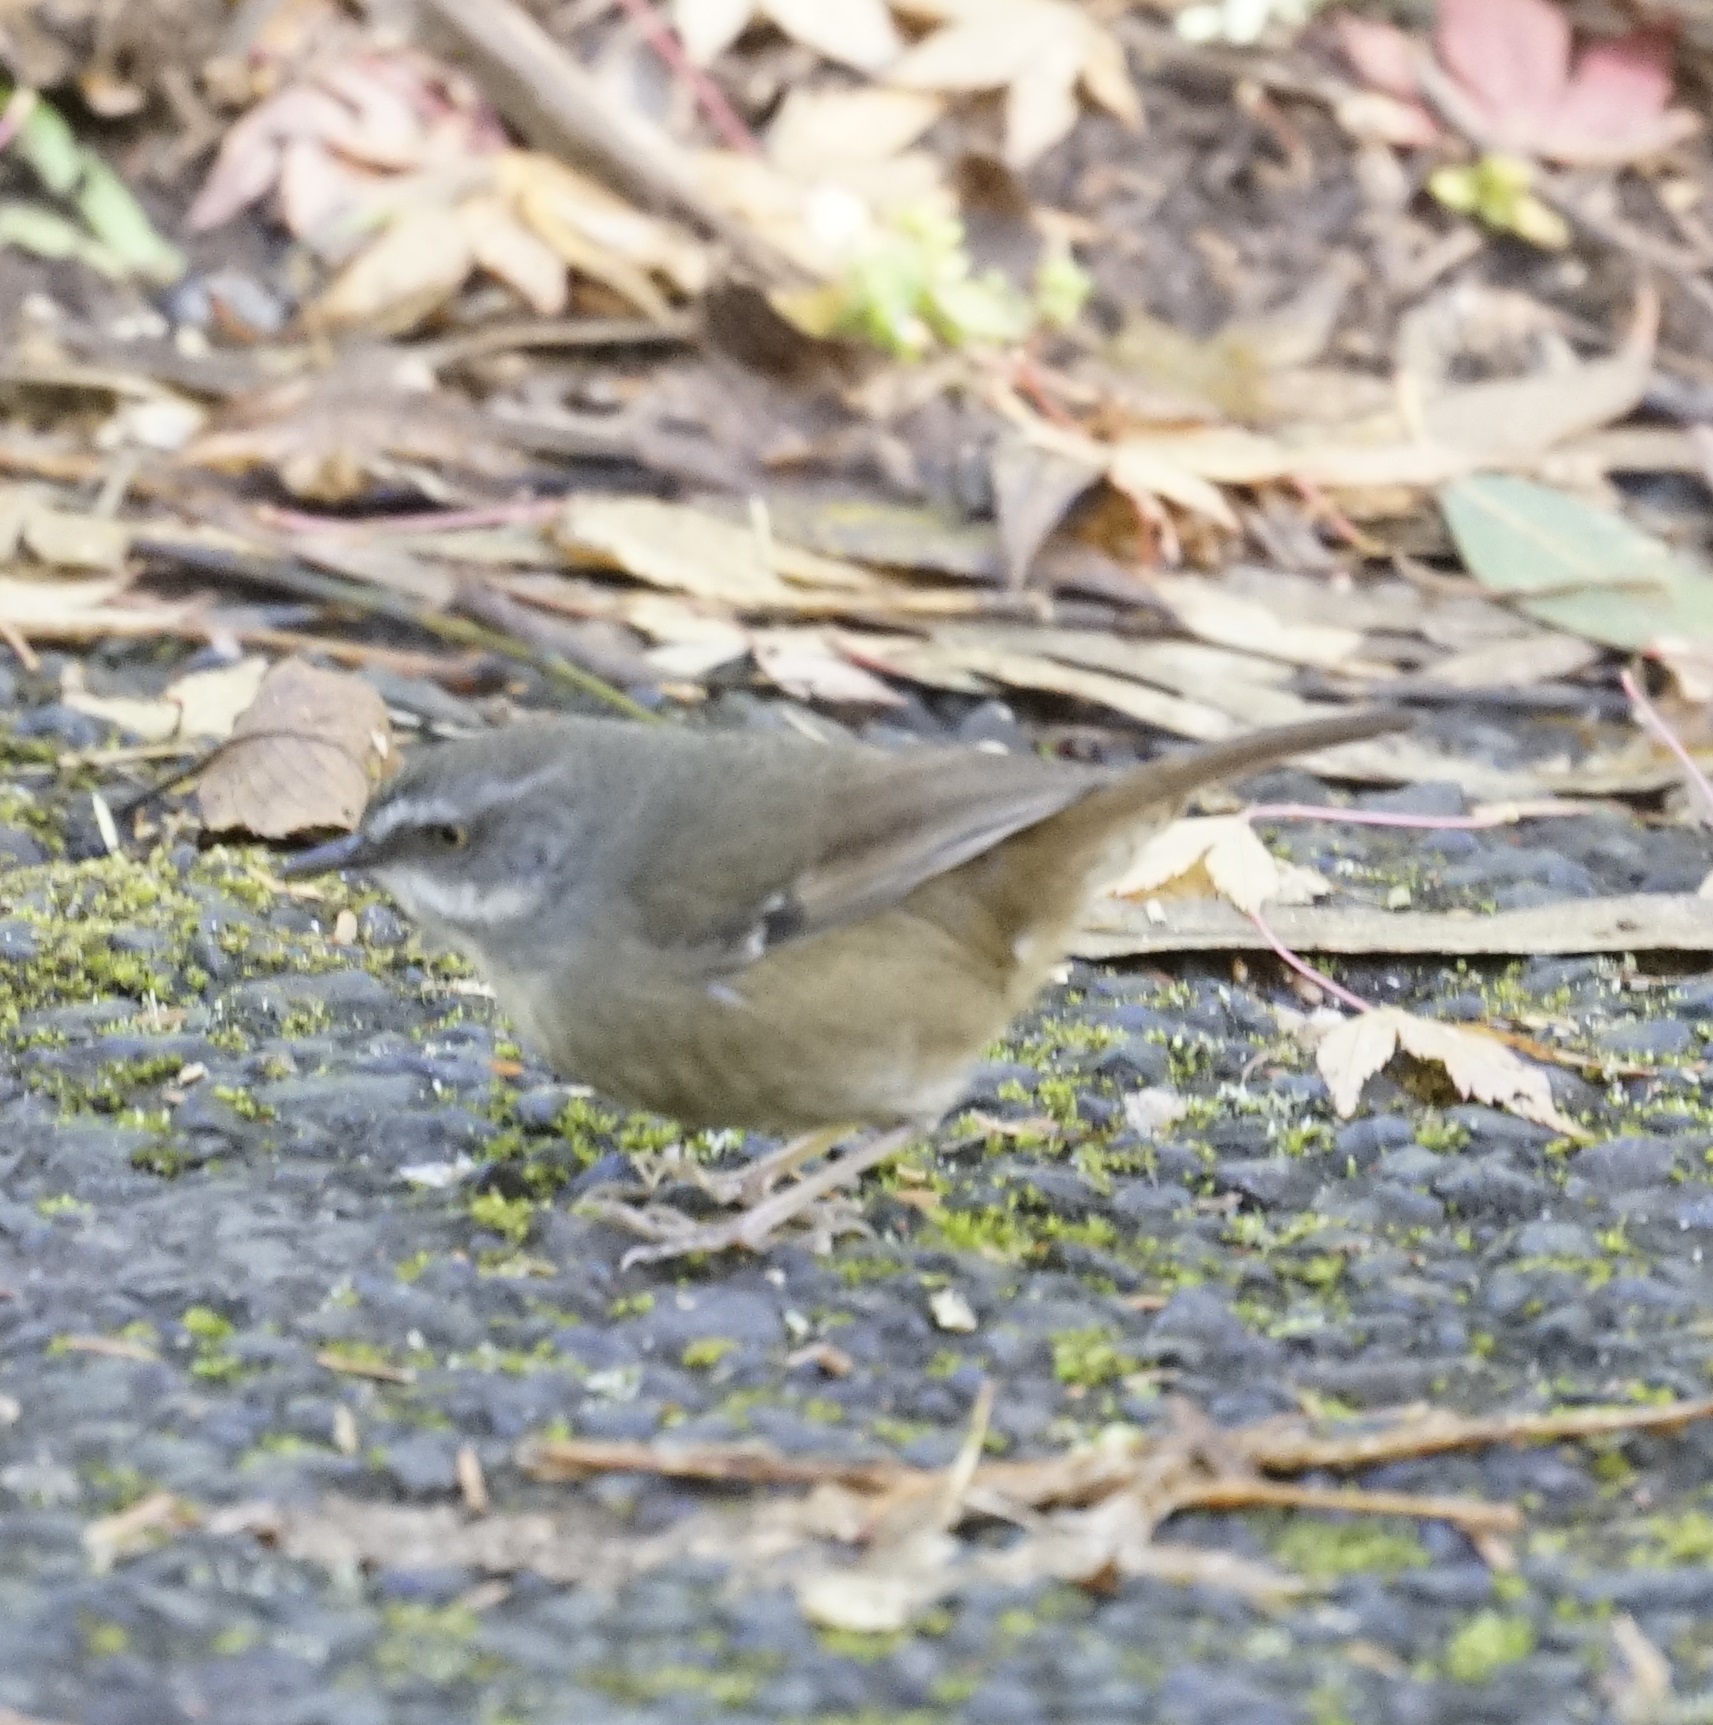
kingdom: Animalia
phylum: Chordata
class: Aves
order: Passeriformes
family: Acanthizidae
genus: Sericornis
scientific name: Sericornis frontalis
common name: White-browed scrubwren
